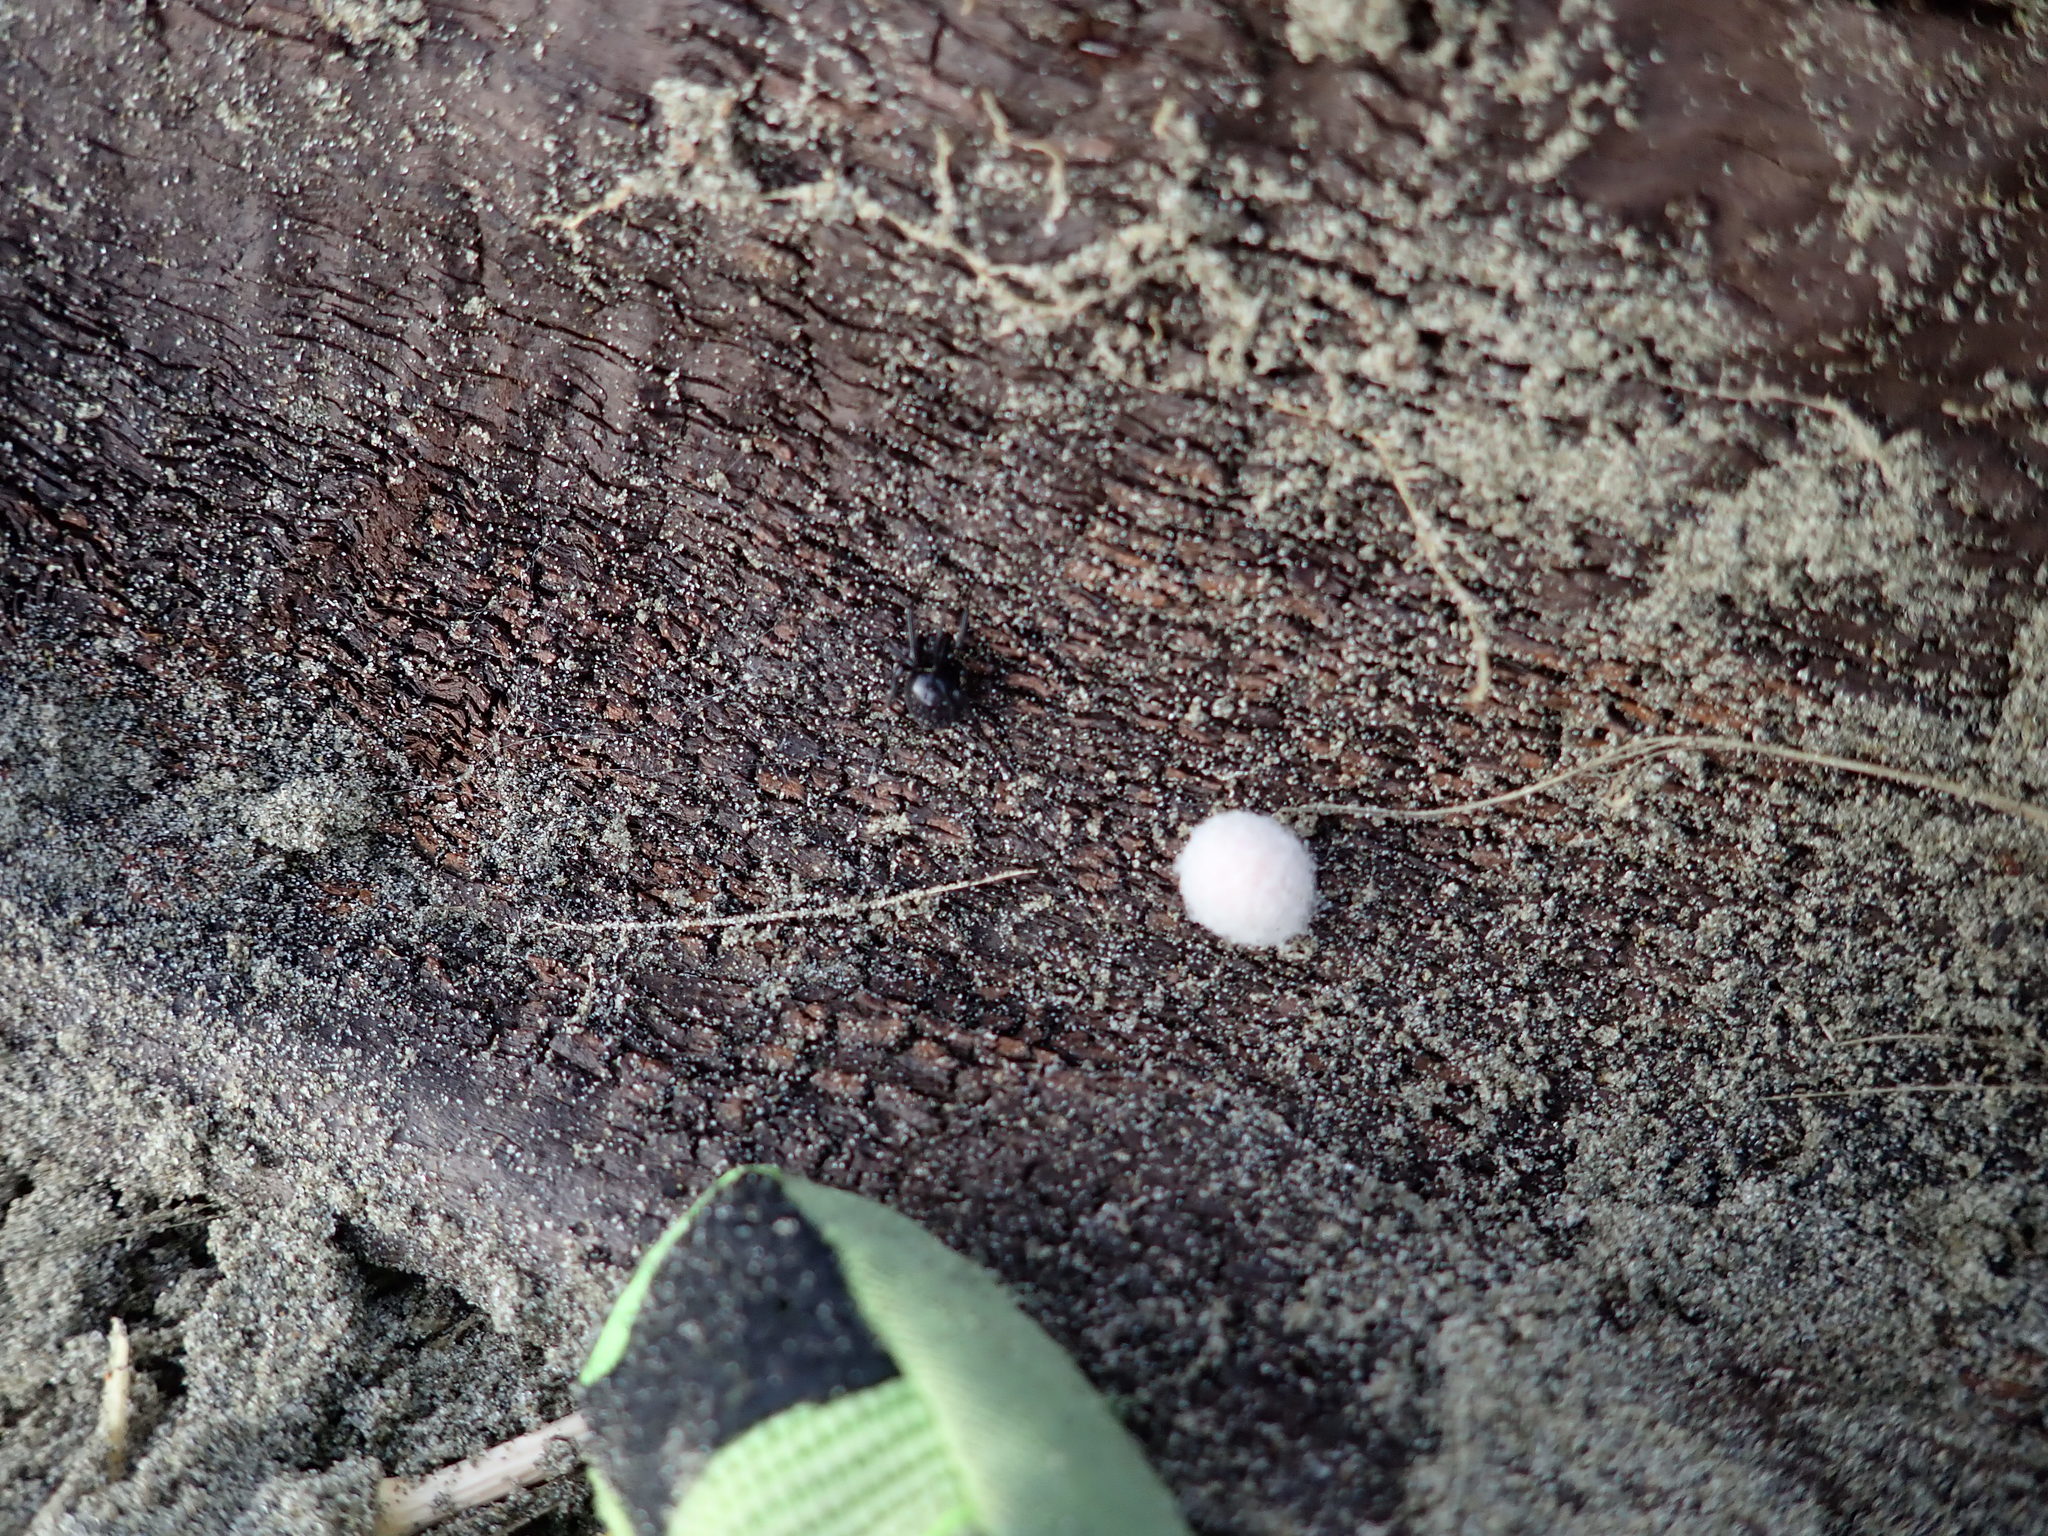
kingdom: Animalia
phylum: Arthropoda
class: Arachnida
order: Araneae
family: Theridiidae
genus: Steatoda
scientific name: Steatoda capensis
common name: Cobweb weaver
